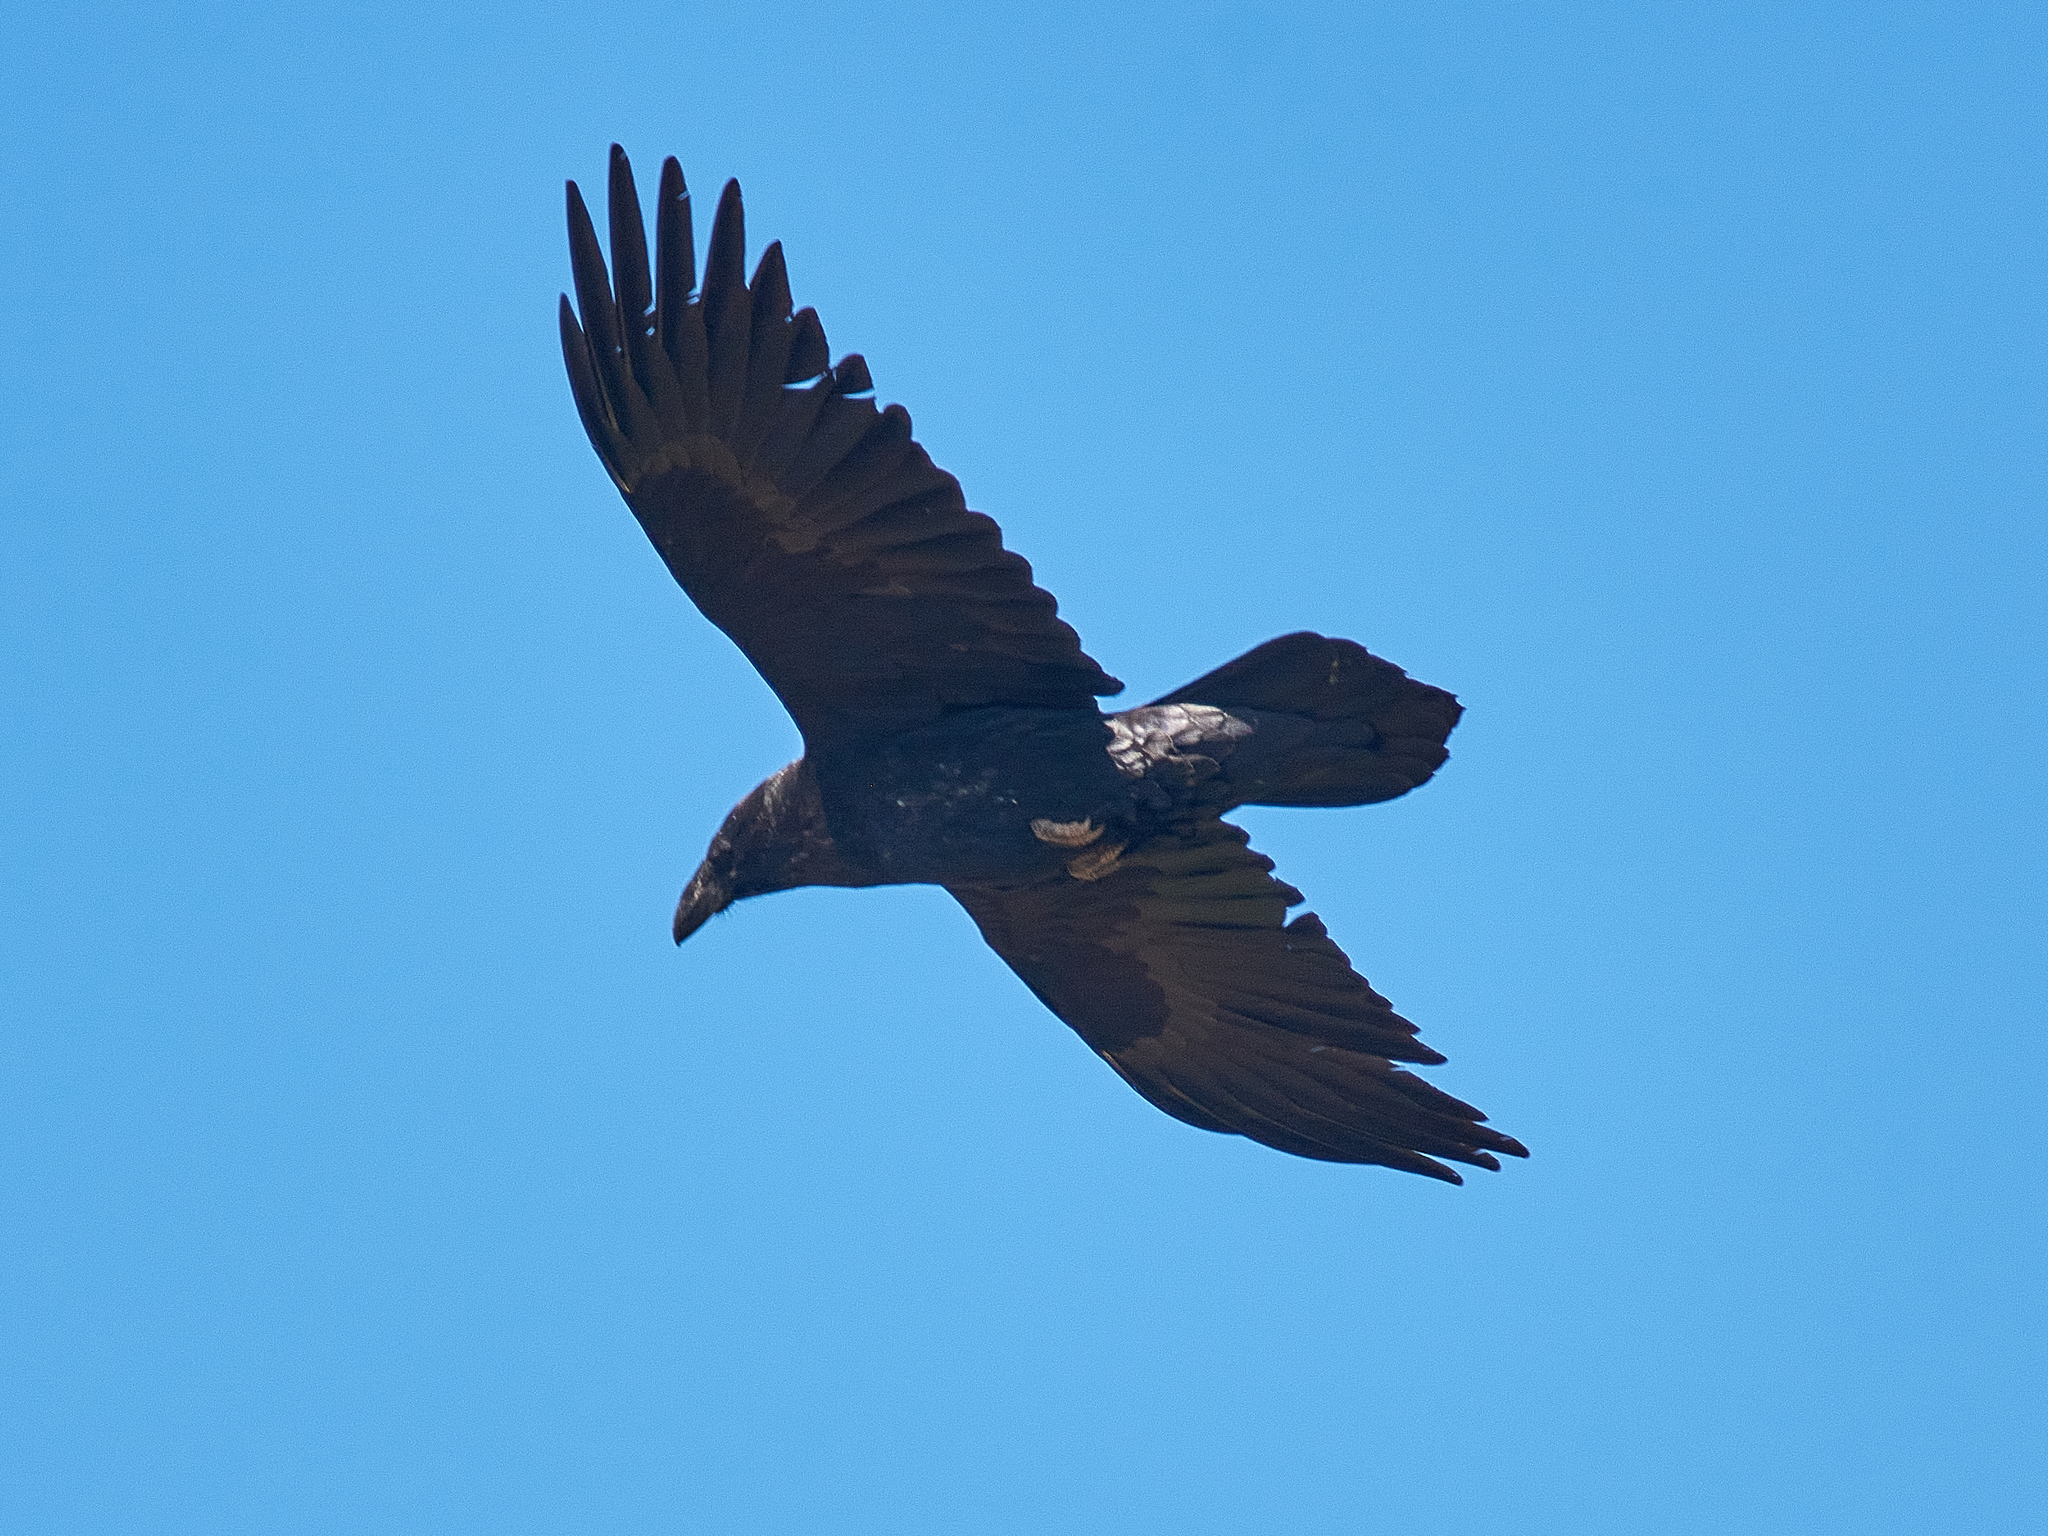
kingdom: Animalia
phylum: Chordata
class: Aves
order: Passeriformes
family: Corvidae
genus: Corvus
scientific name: Corvus corax
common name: Common raven
